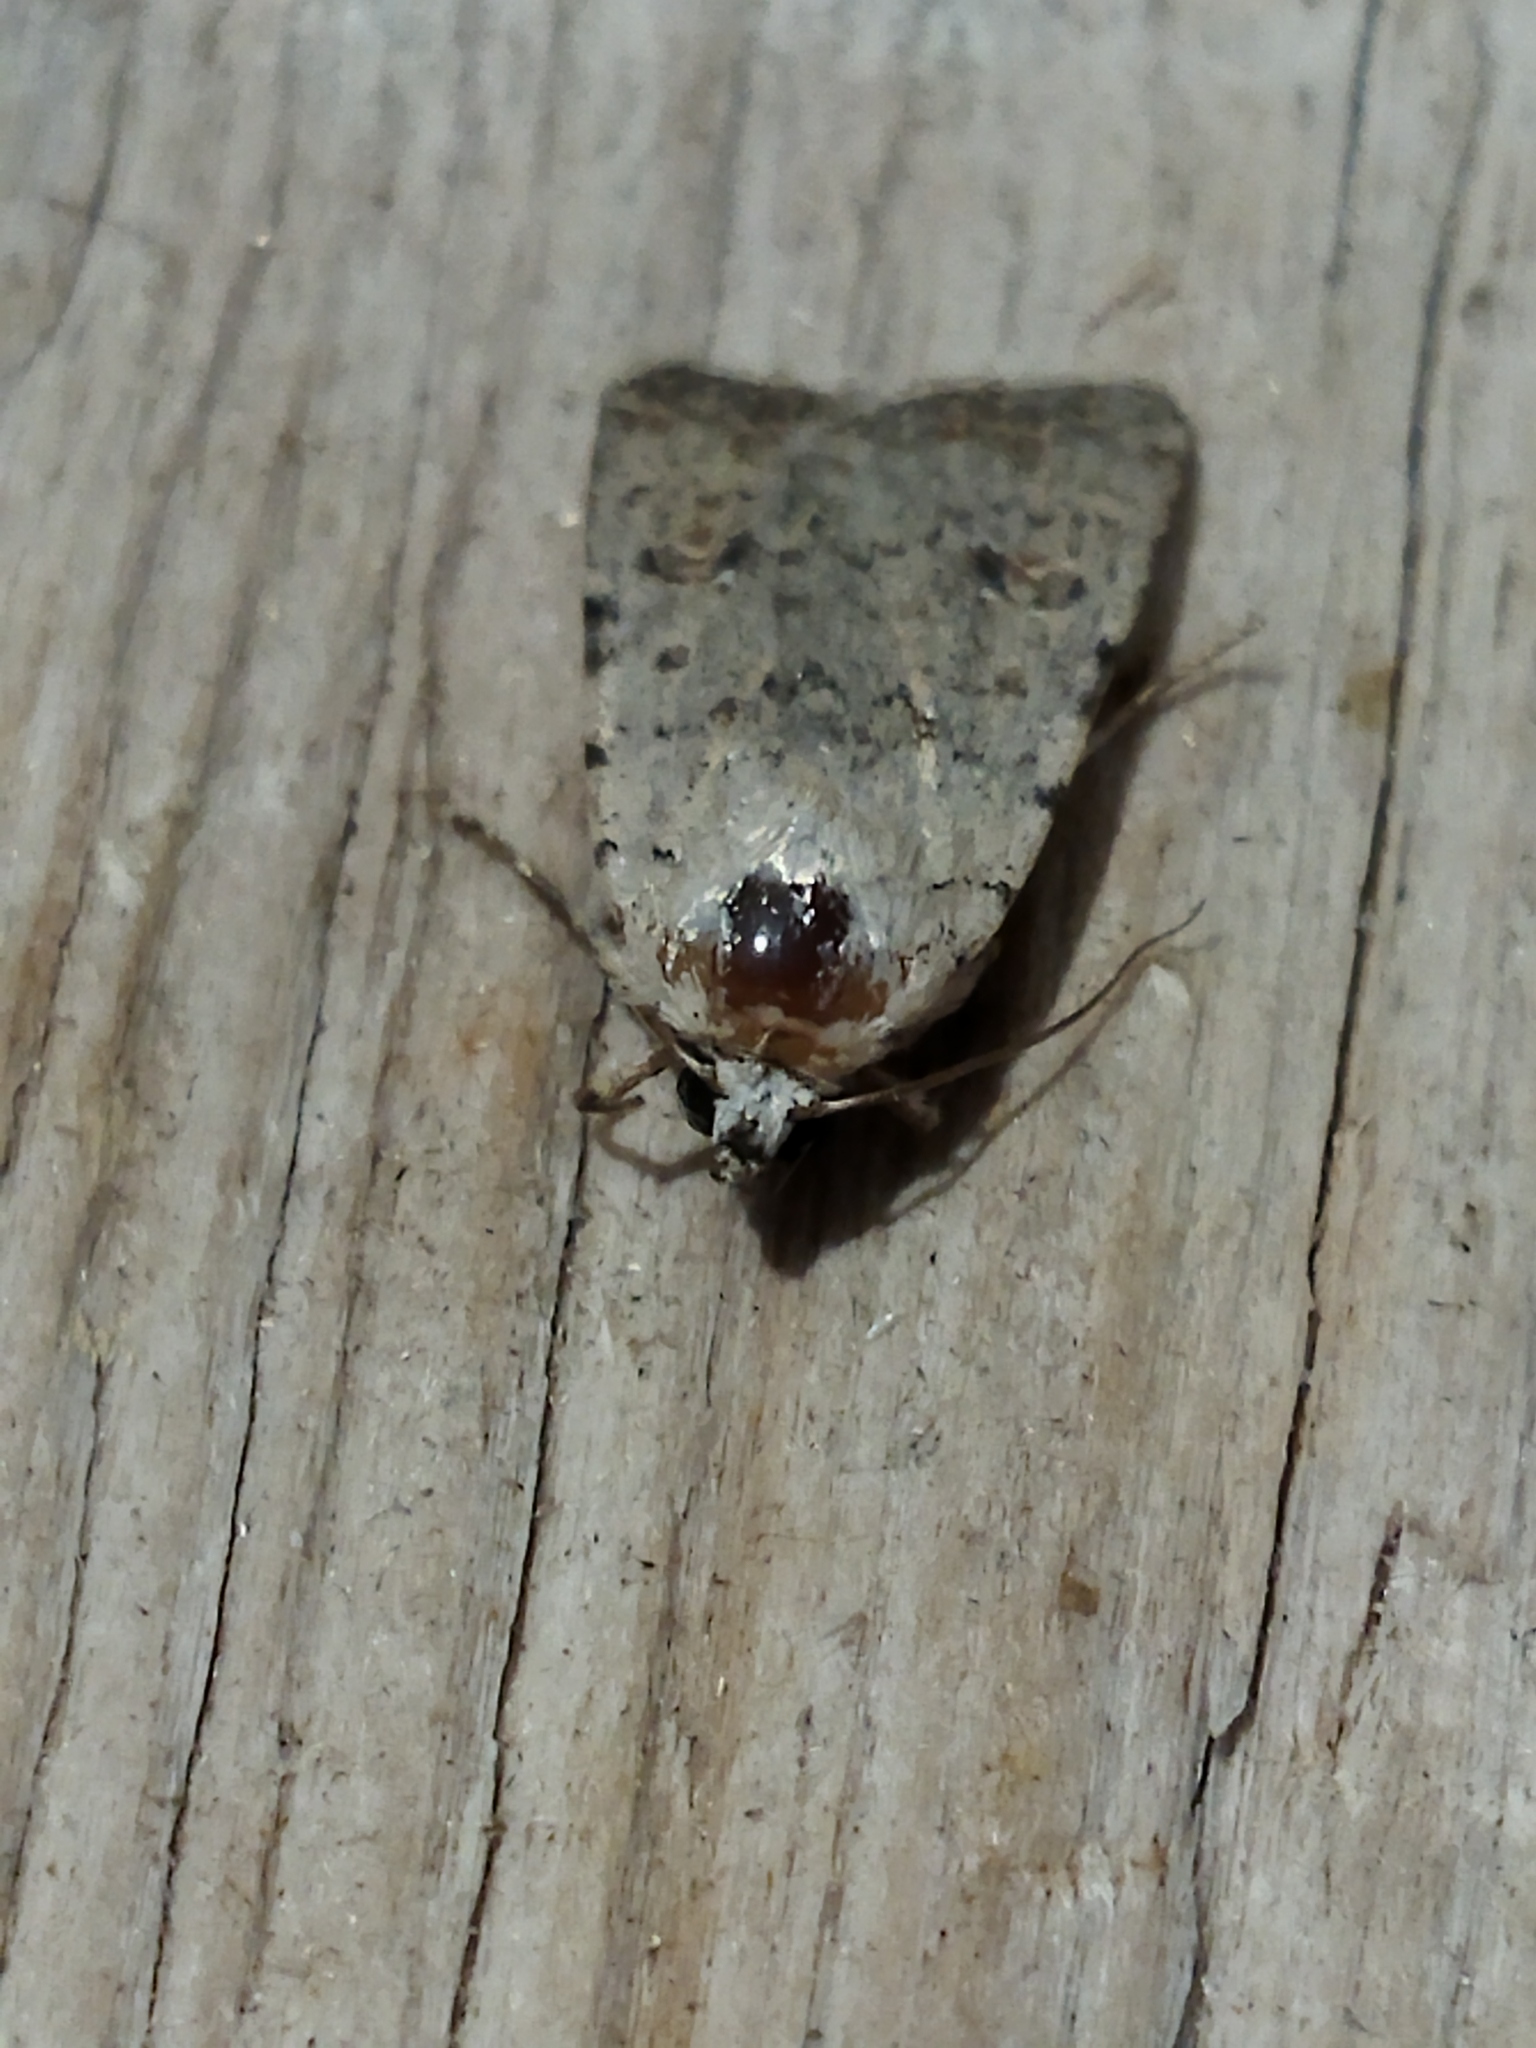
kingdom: Animalia
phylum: Arthropoda
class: Insecta
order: Lepidoptera
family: Noctuidae
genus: Caradrina
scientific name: Caradrina clavipalpis
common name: Pale mottled willow
